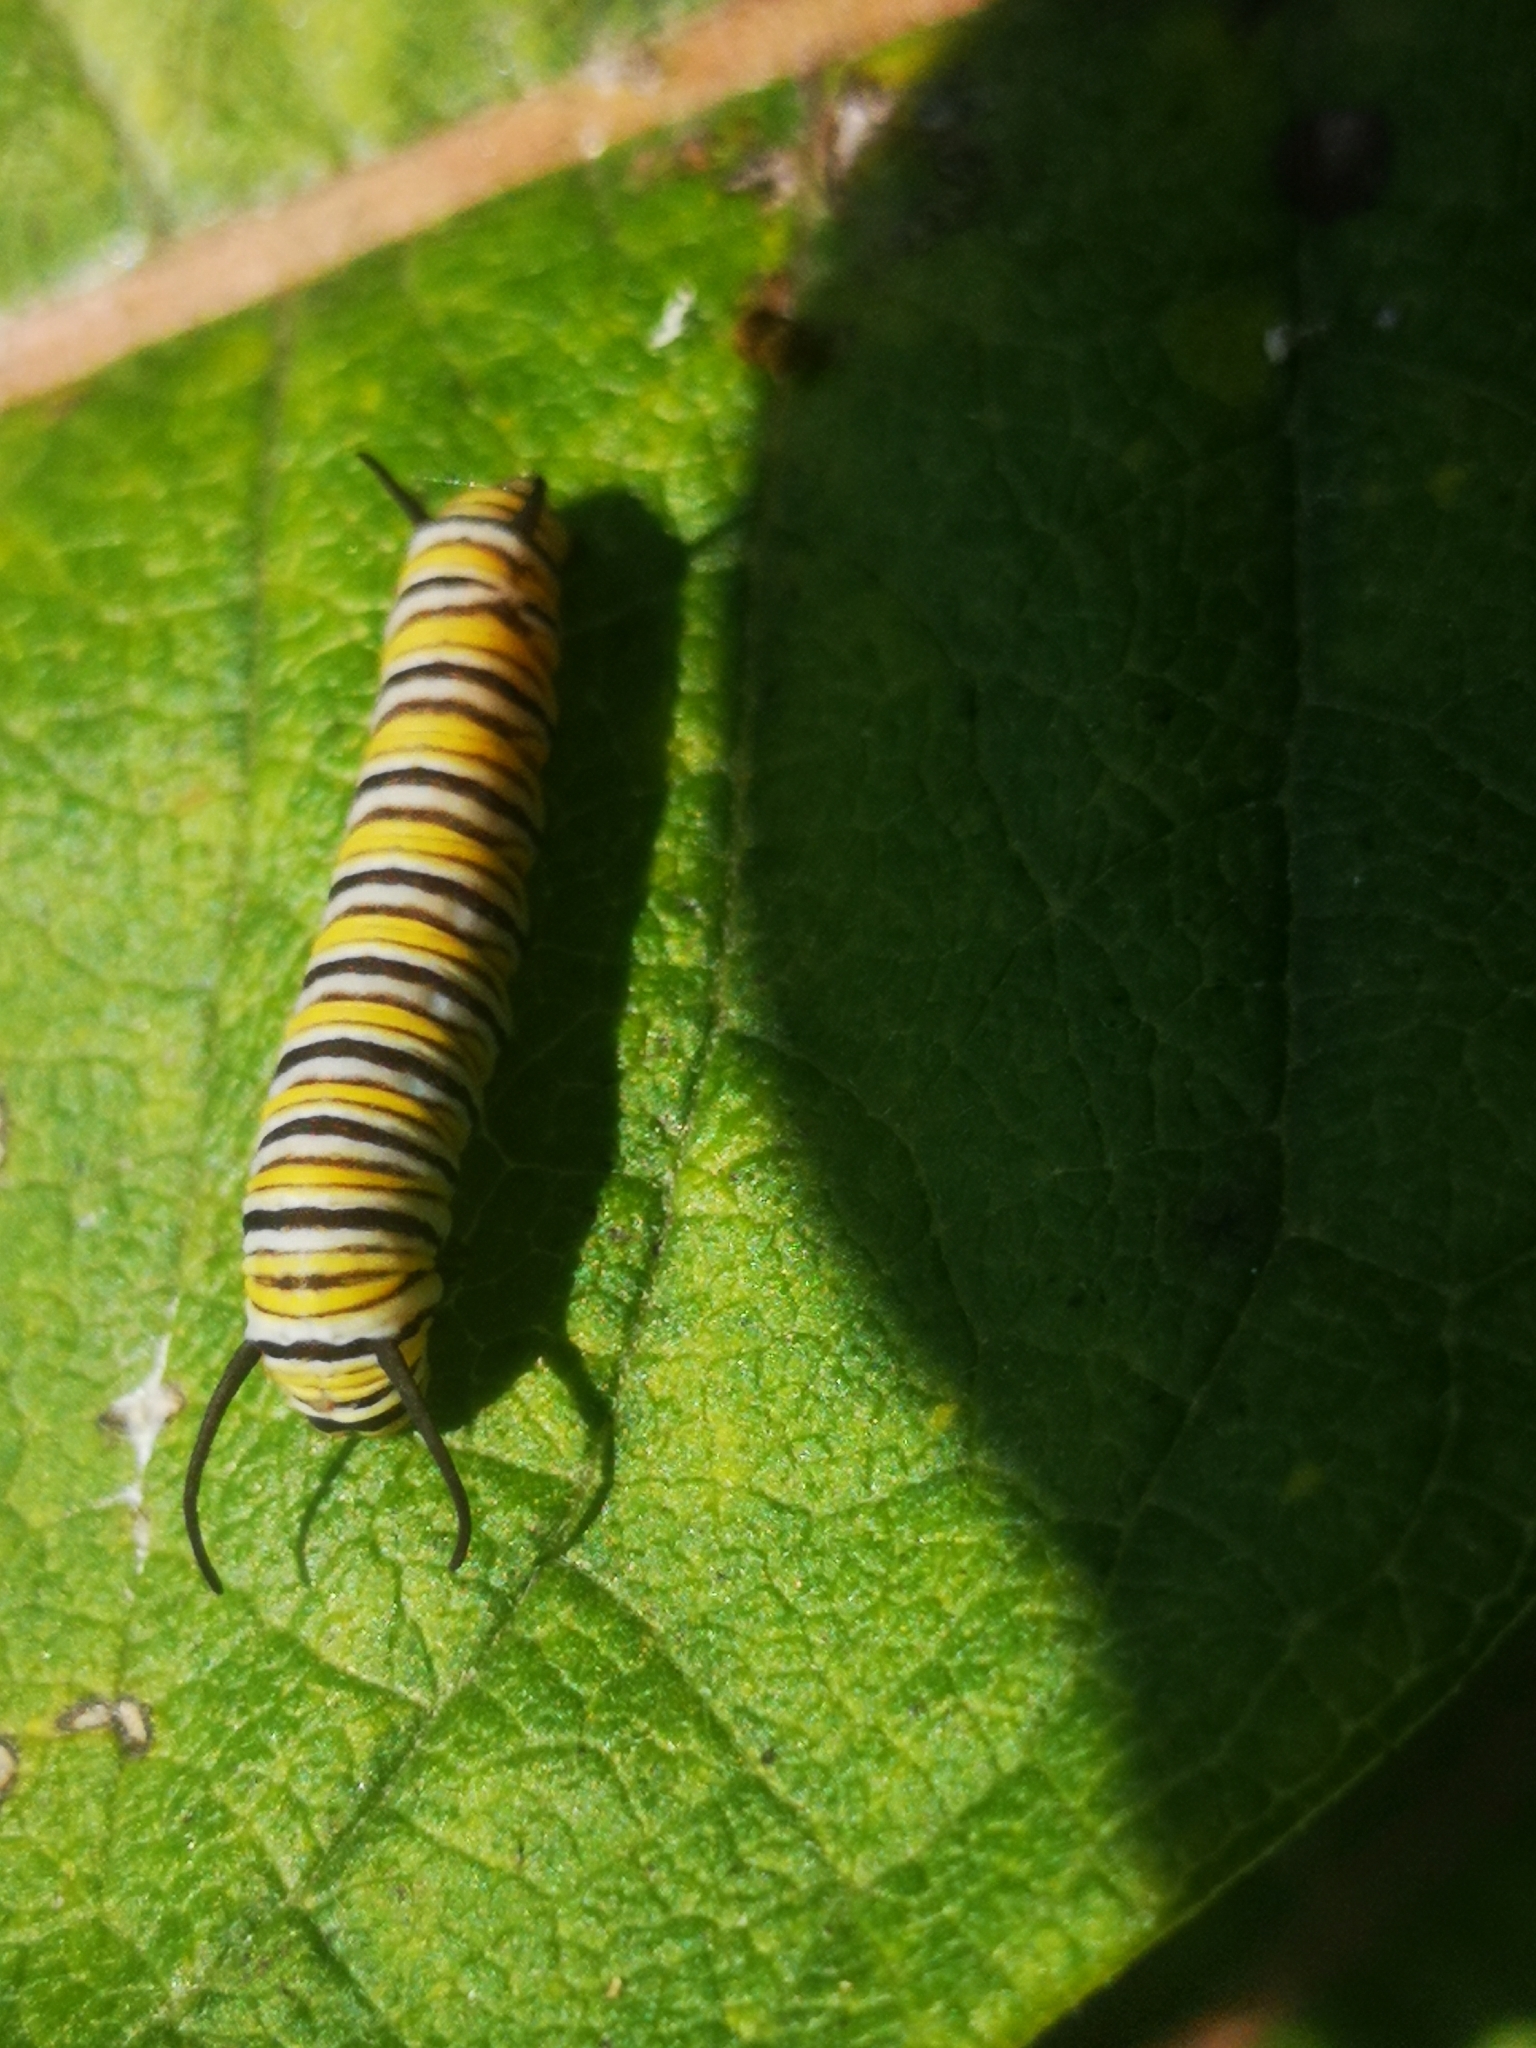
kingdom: Animalia
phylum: Arthropoda
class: Insecta
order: Lepidoptera
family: Nymphalidae
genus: Danaus
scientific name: Danaus plexippus
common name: Monarch
